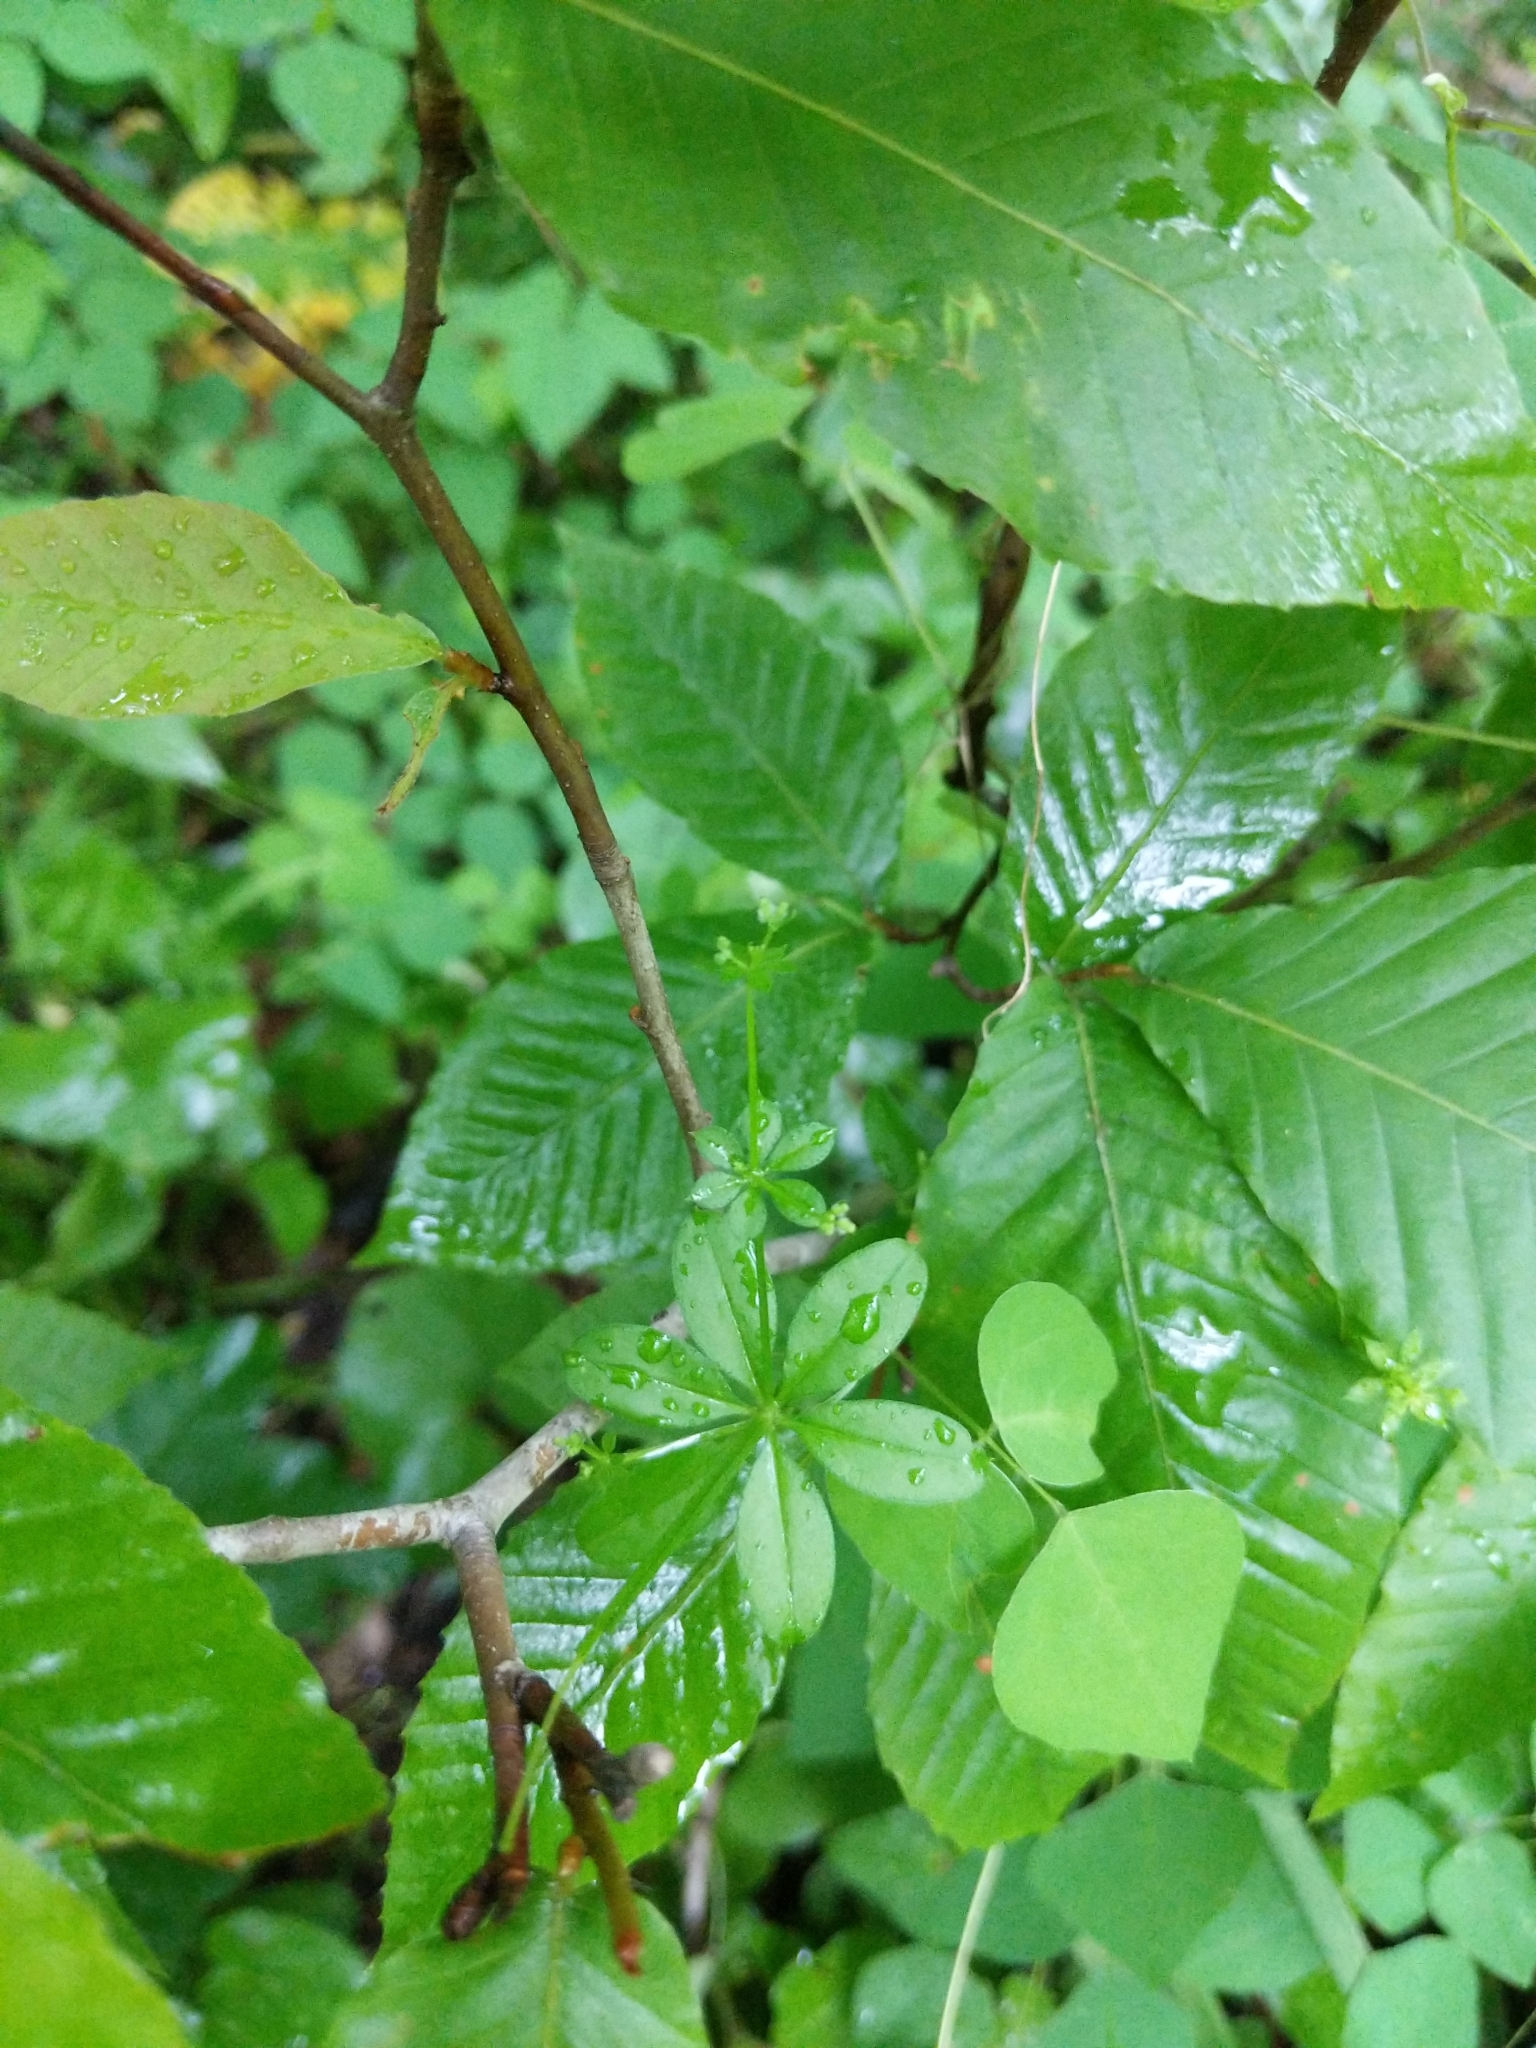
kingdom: Plantae
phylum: Tracheophyta
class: Magnoliopsida
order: Gentianales
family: Rubiaceae
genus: Galium
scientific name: Galium triflorum
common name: Fragrant bedstraw
